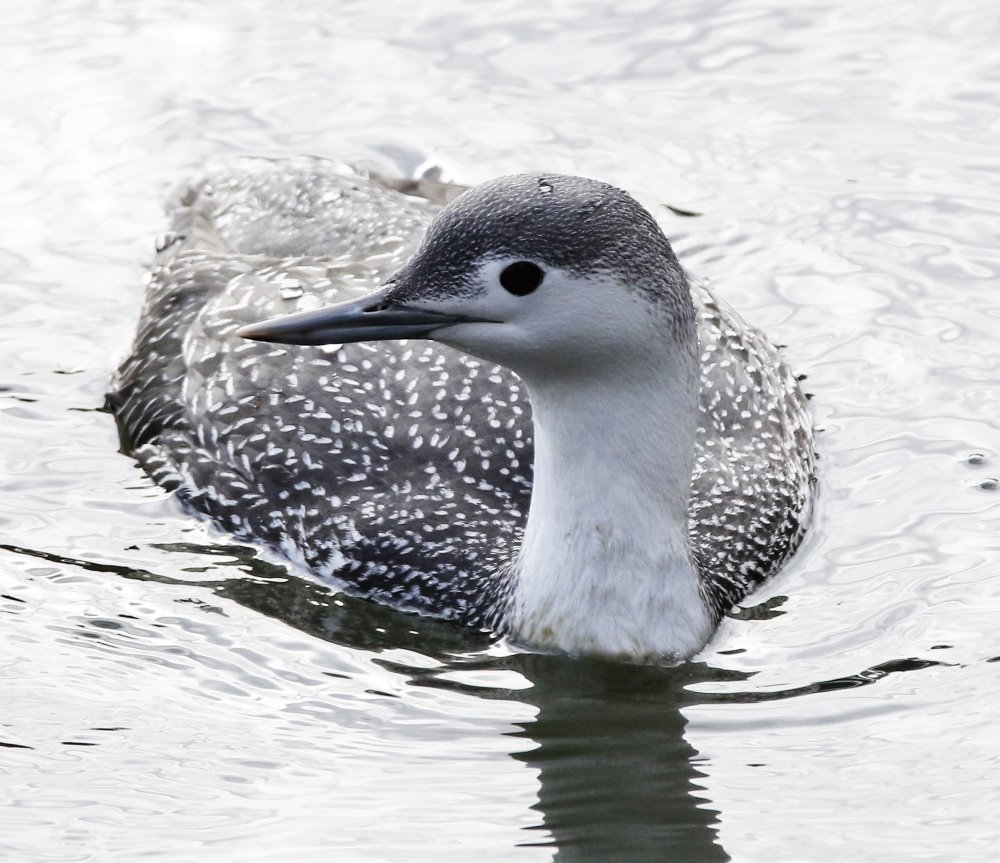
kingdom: Animalia
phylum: Chordata
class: Aves
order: Gaviiformes
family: Gaviidae
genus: Gavia
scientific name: Gavia stellata
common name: Red-throated loon
